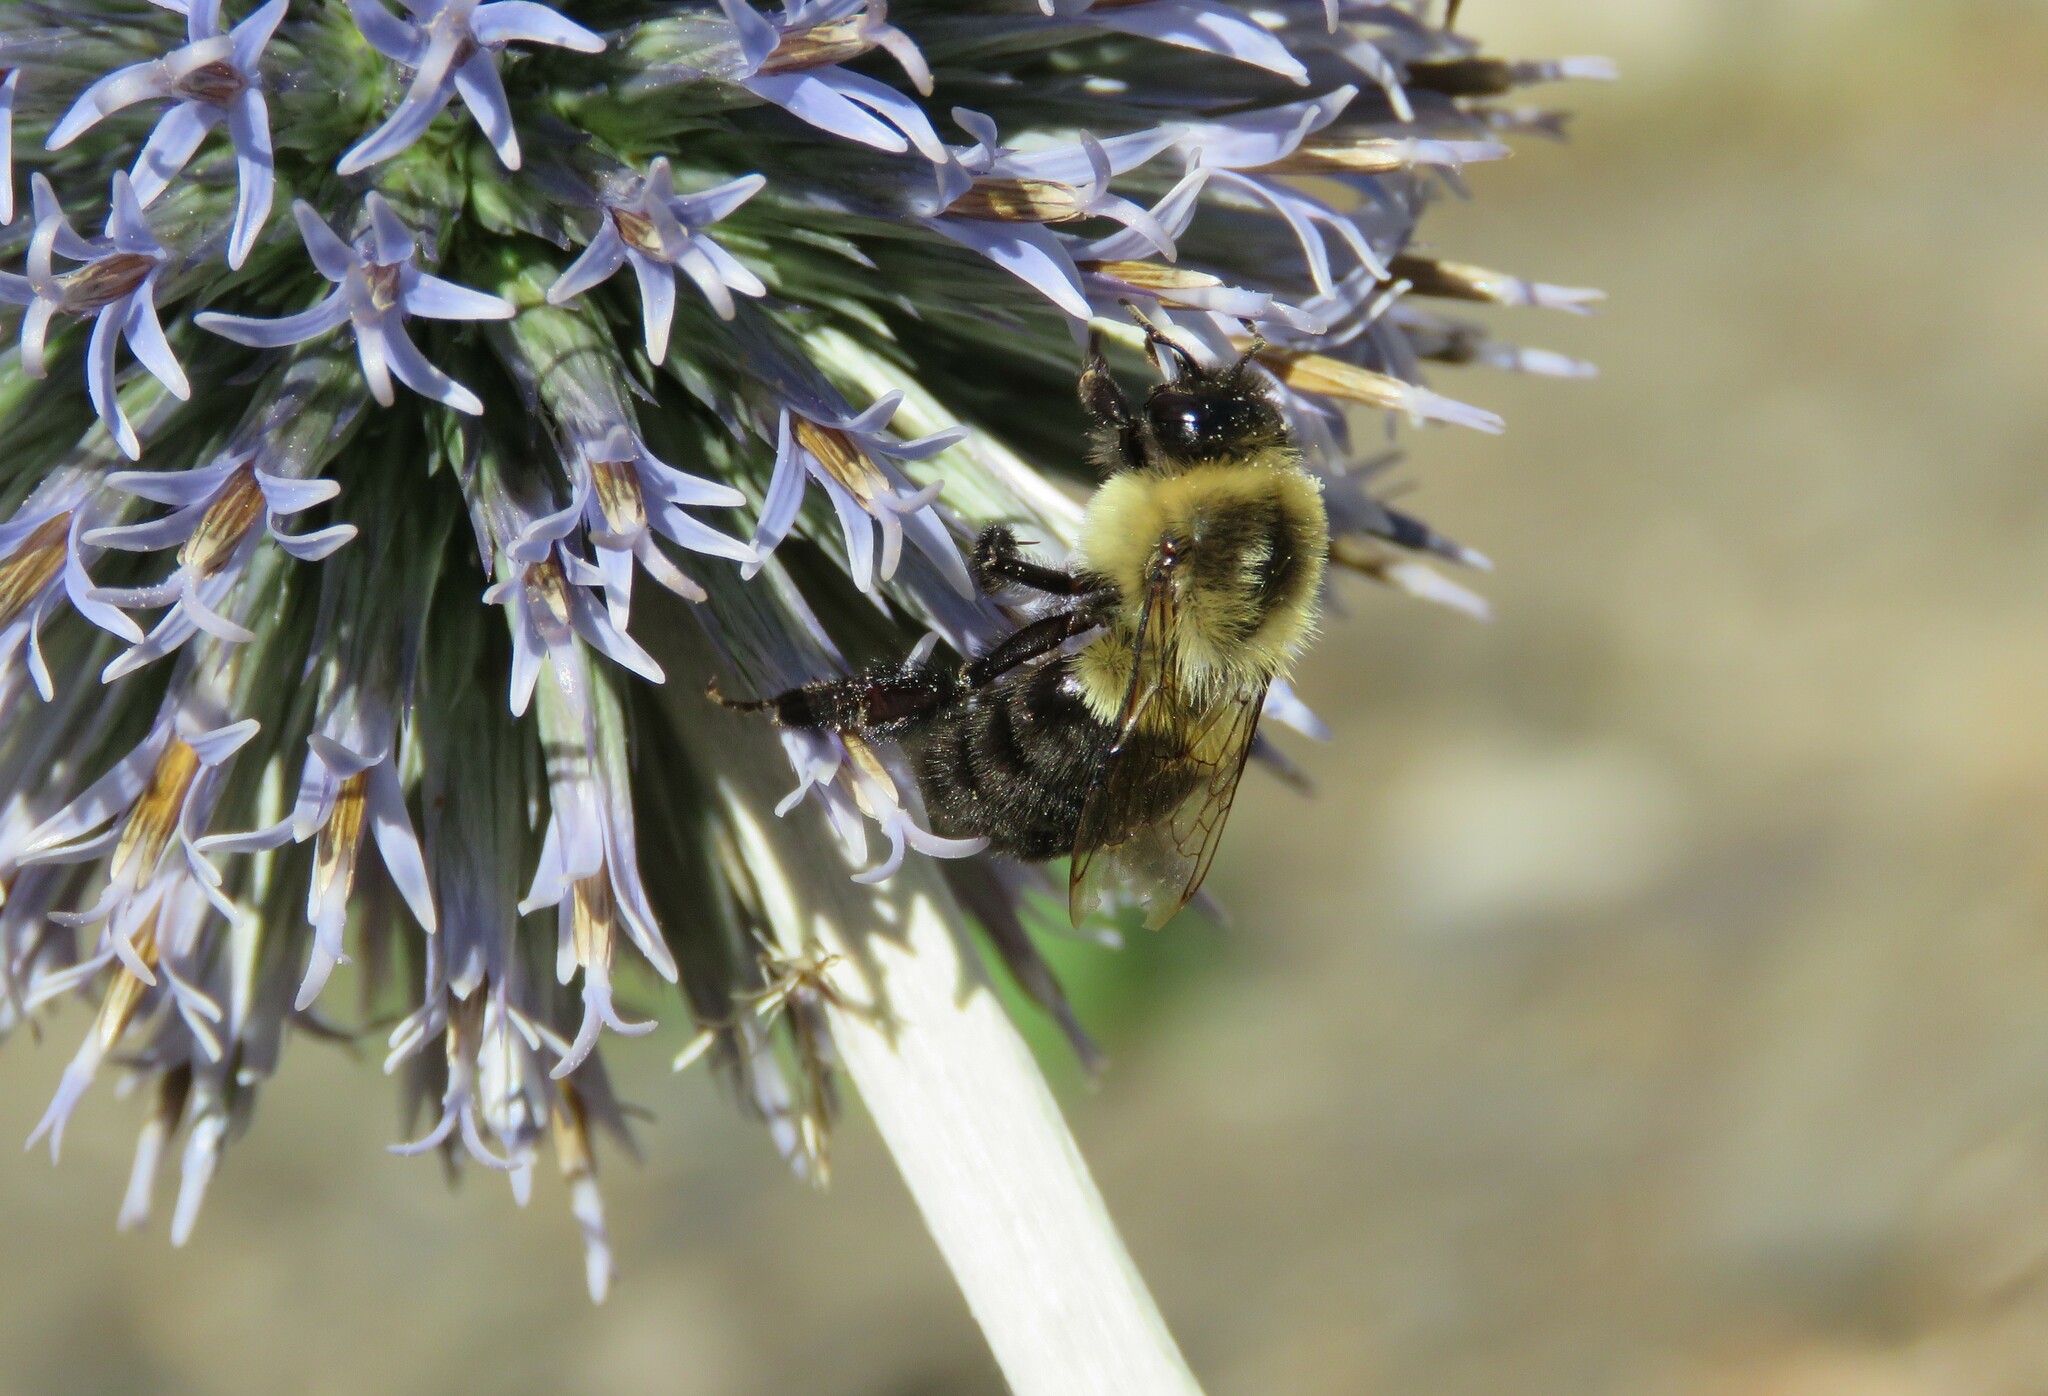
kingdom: Animalia
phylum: Arthropoda
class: Insecta
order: Hymenoptera
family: Apidae
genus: Bombus
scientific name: Bombus impatiens
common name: Common eastern bumble bee
